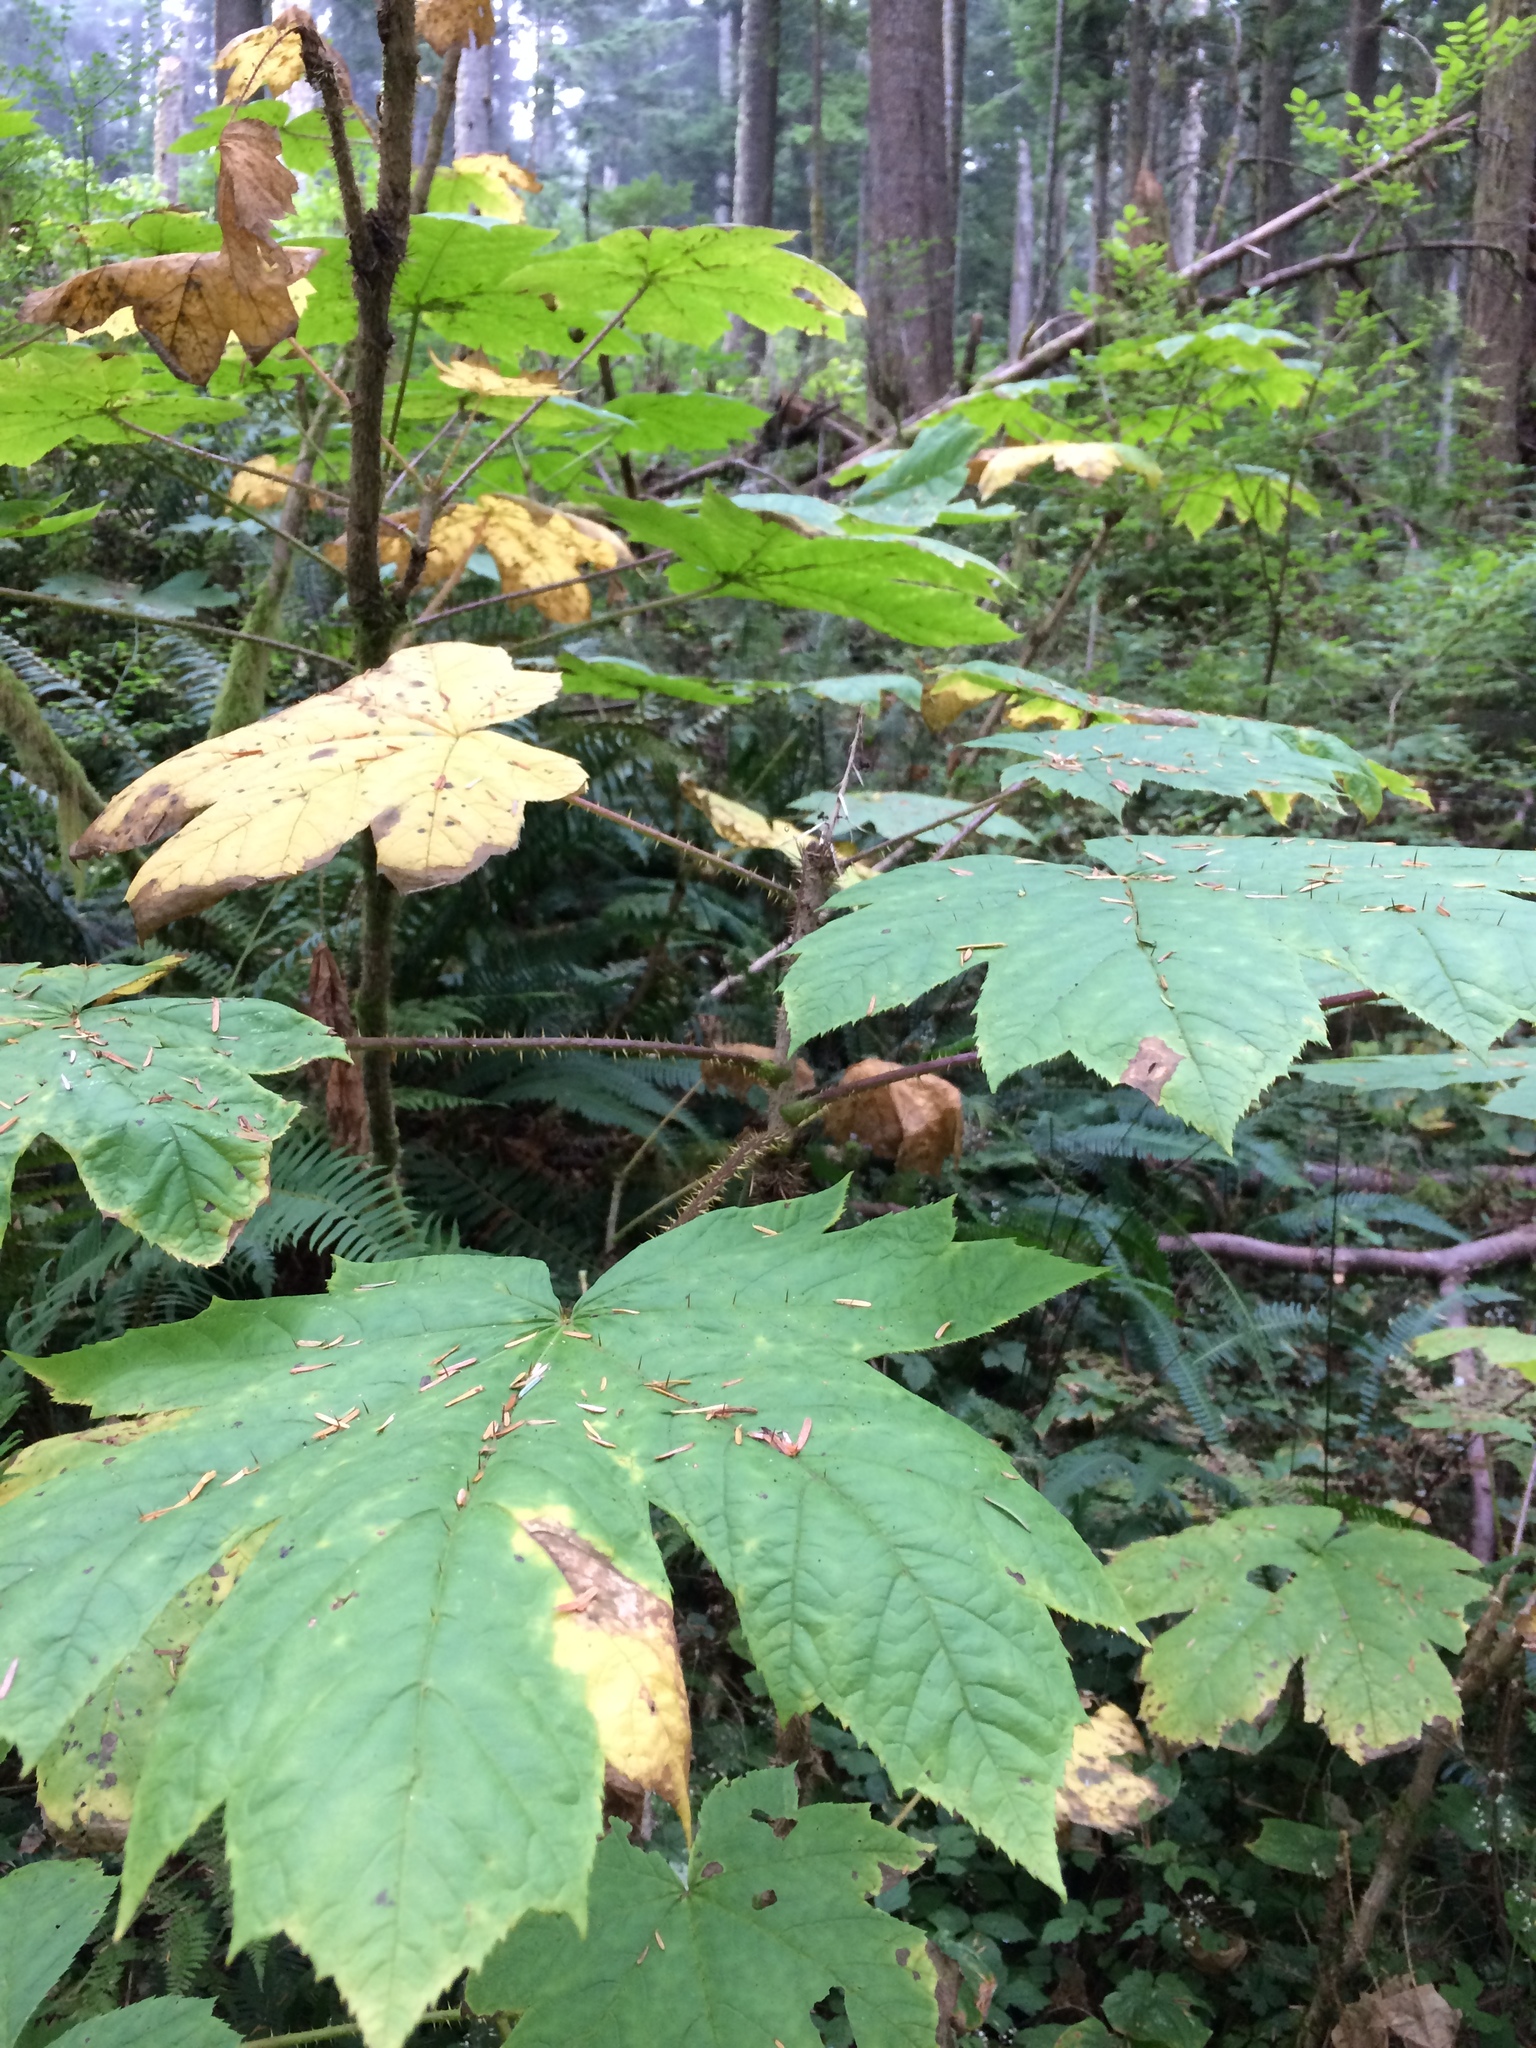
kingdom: Plantae
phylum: Tracheophyta
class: Magnoliopsida
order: Apiales
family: Araliaceae
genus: Oplopanax
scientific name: Oplopanax horridus
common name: Devil's walking-stick
